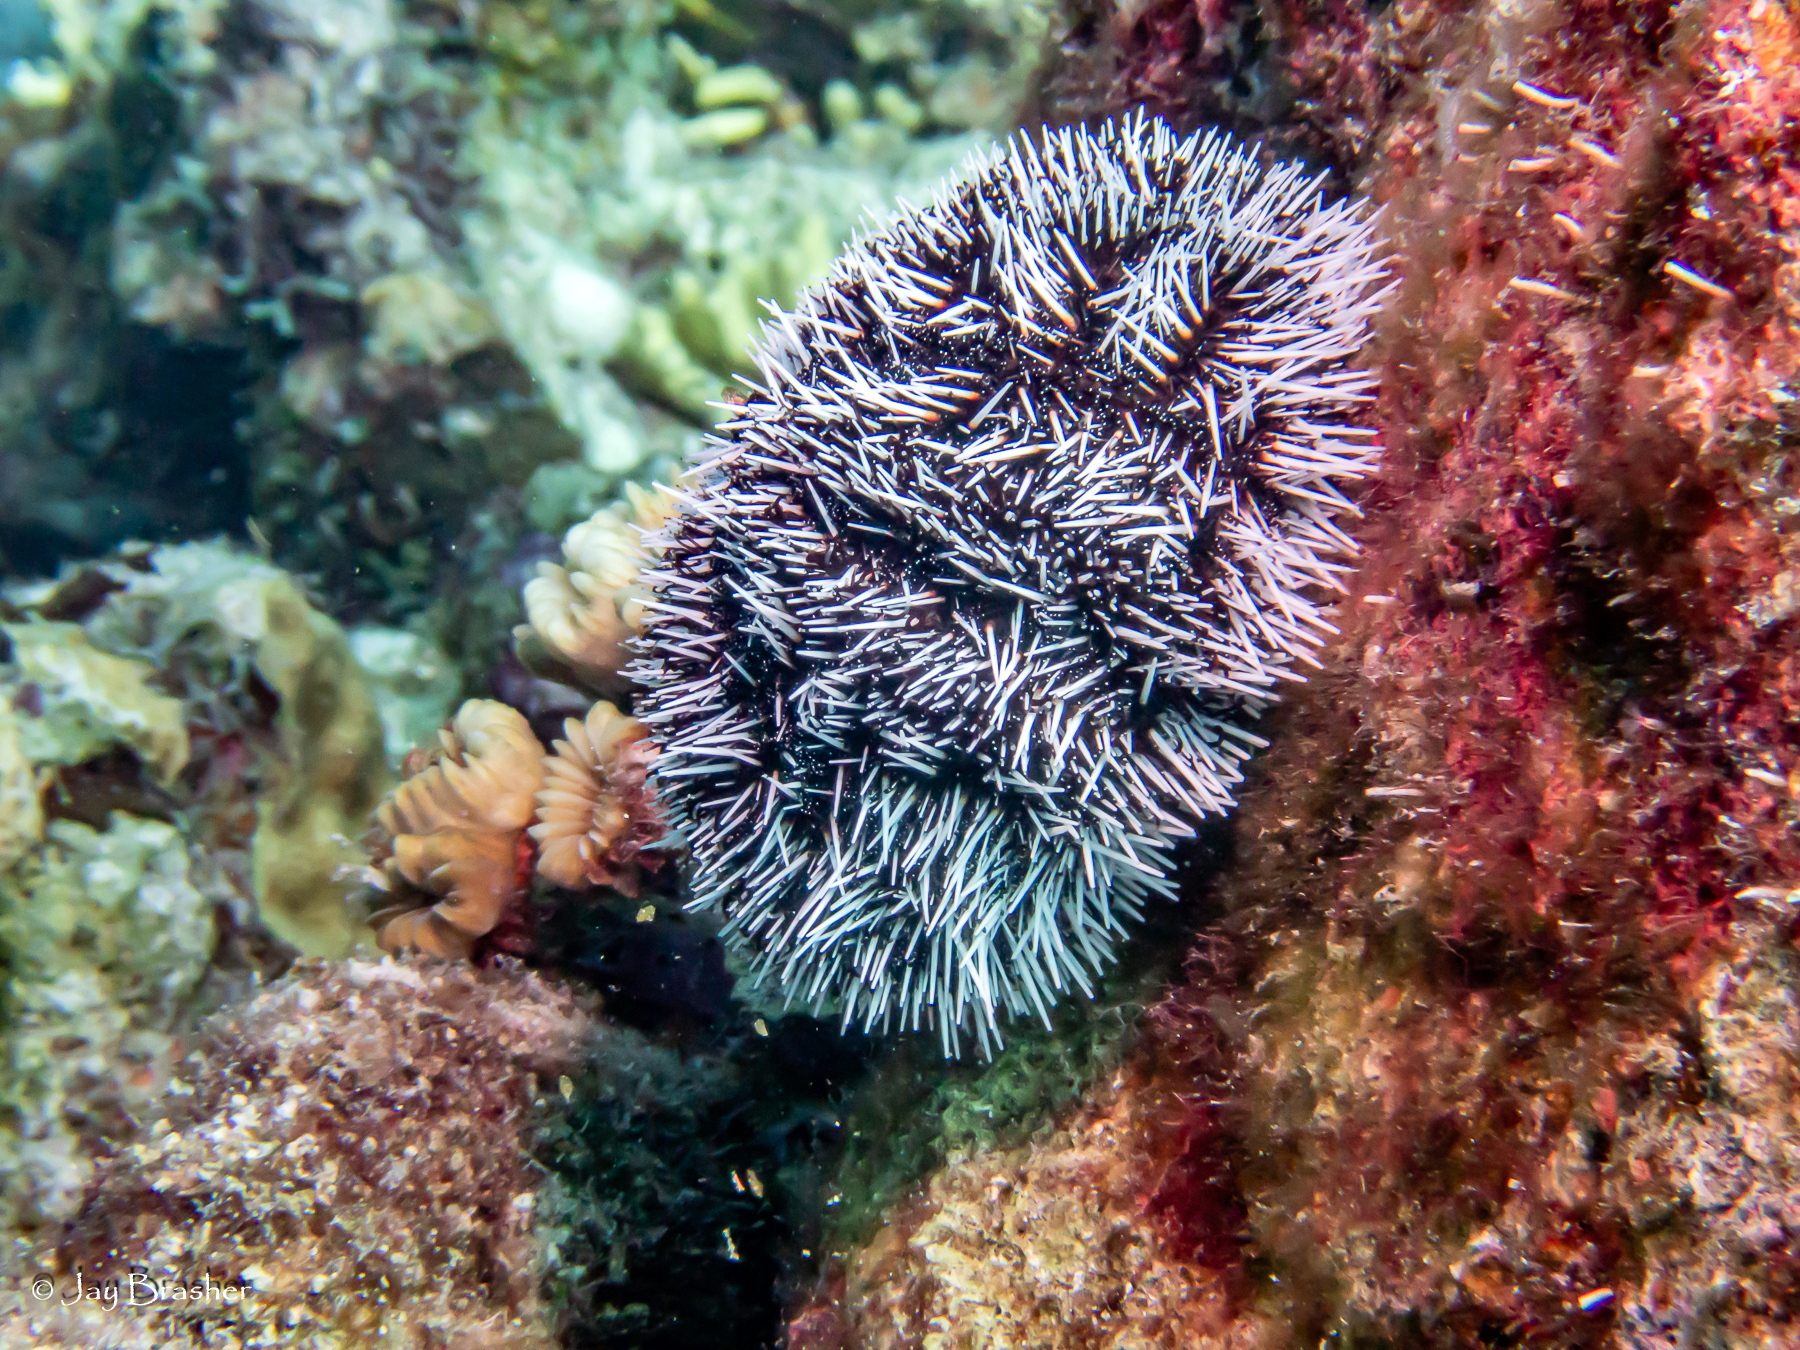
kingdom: Animalia
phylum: Echinodermata
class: Echinoidea
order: Camarodonta
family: Toxopneustidae
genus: Tripneustes
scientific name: Tripneustes ventricosus
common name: West indian sea egg
